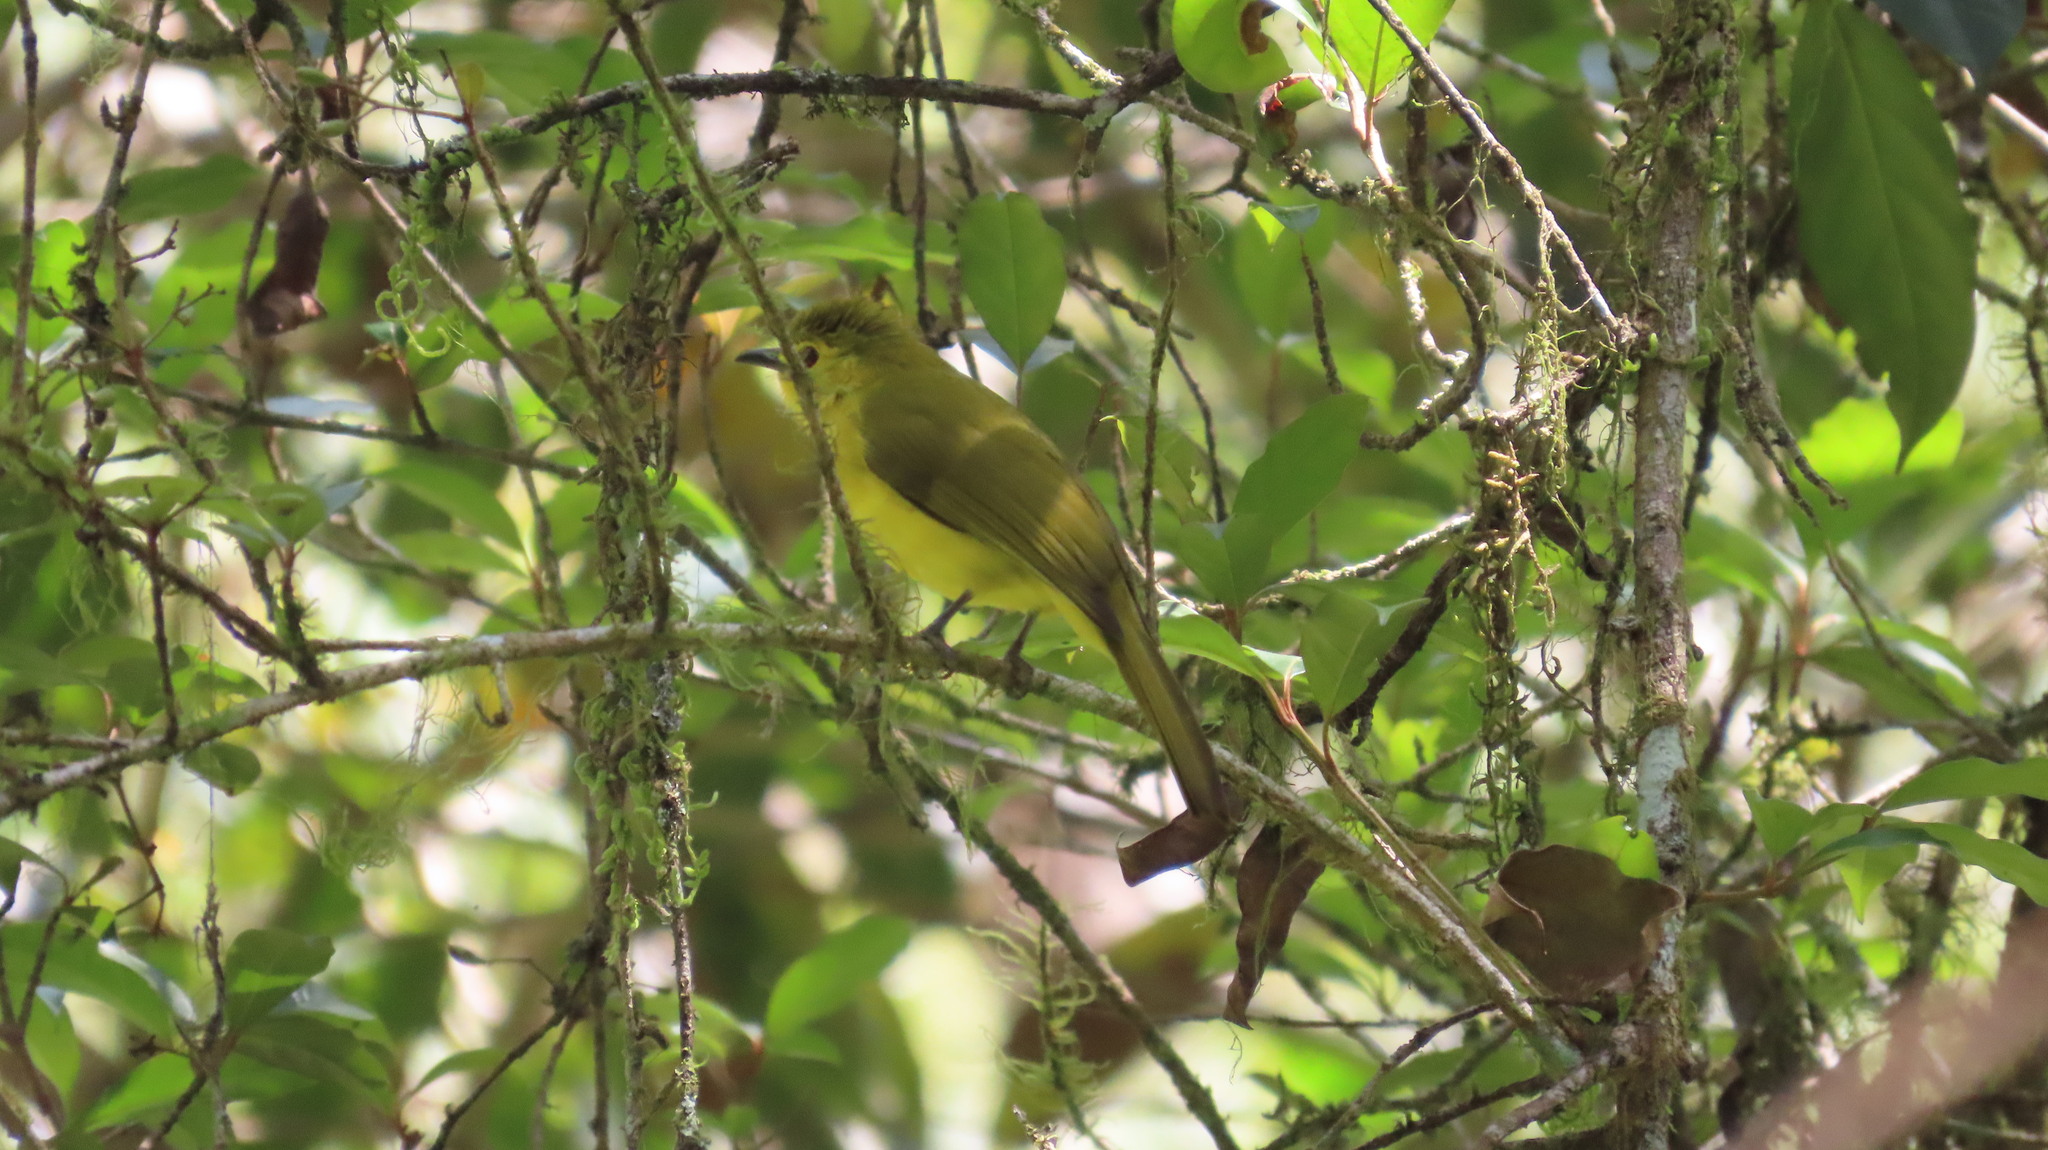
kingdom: Animalia
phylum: Chordata
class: Aves
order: Passeriformes
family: Pycnonotidae
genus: Acritillas
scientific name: Acritillas indica
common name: Yellow-browed bulbul
